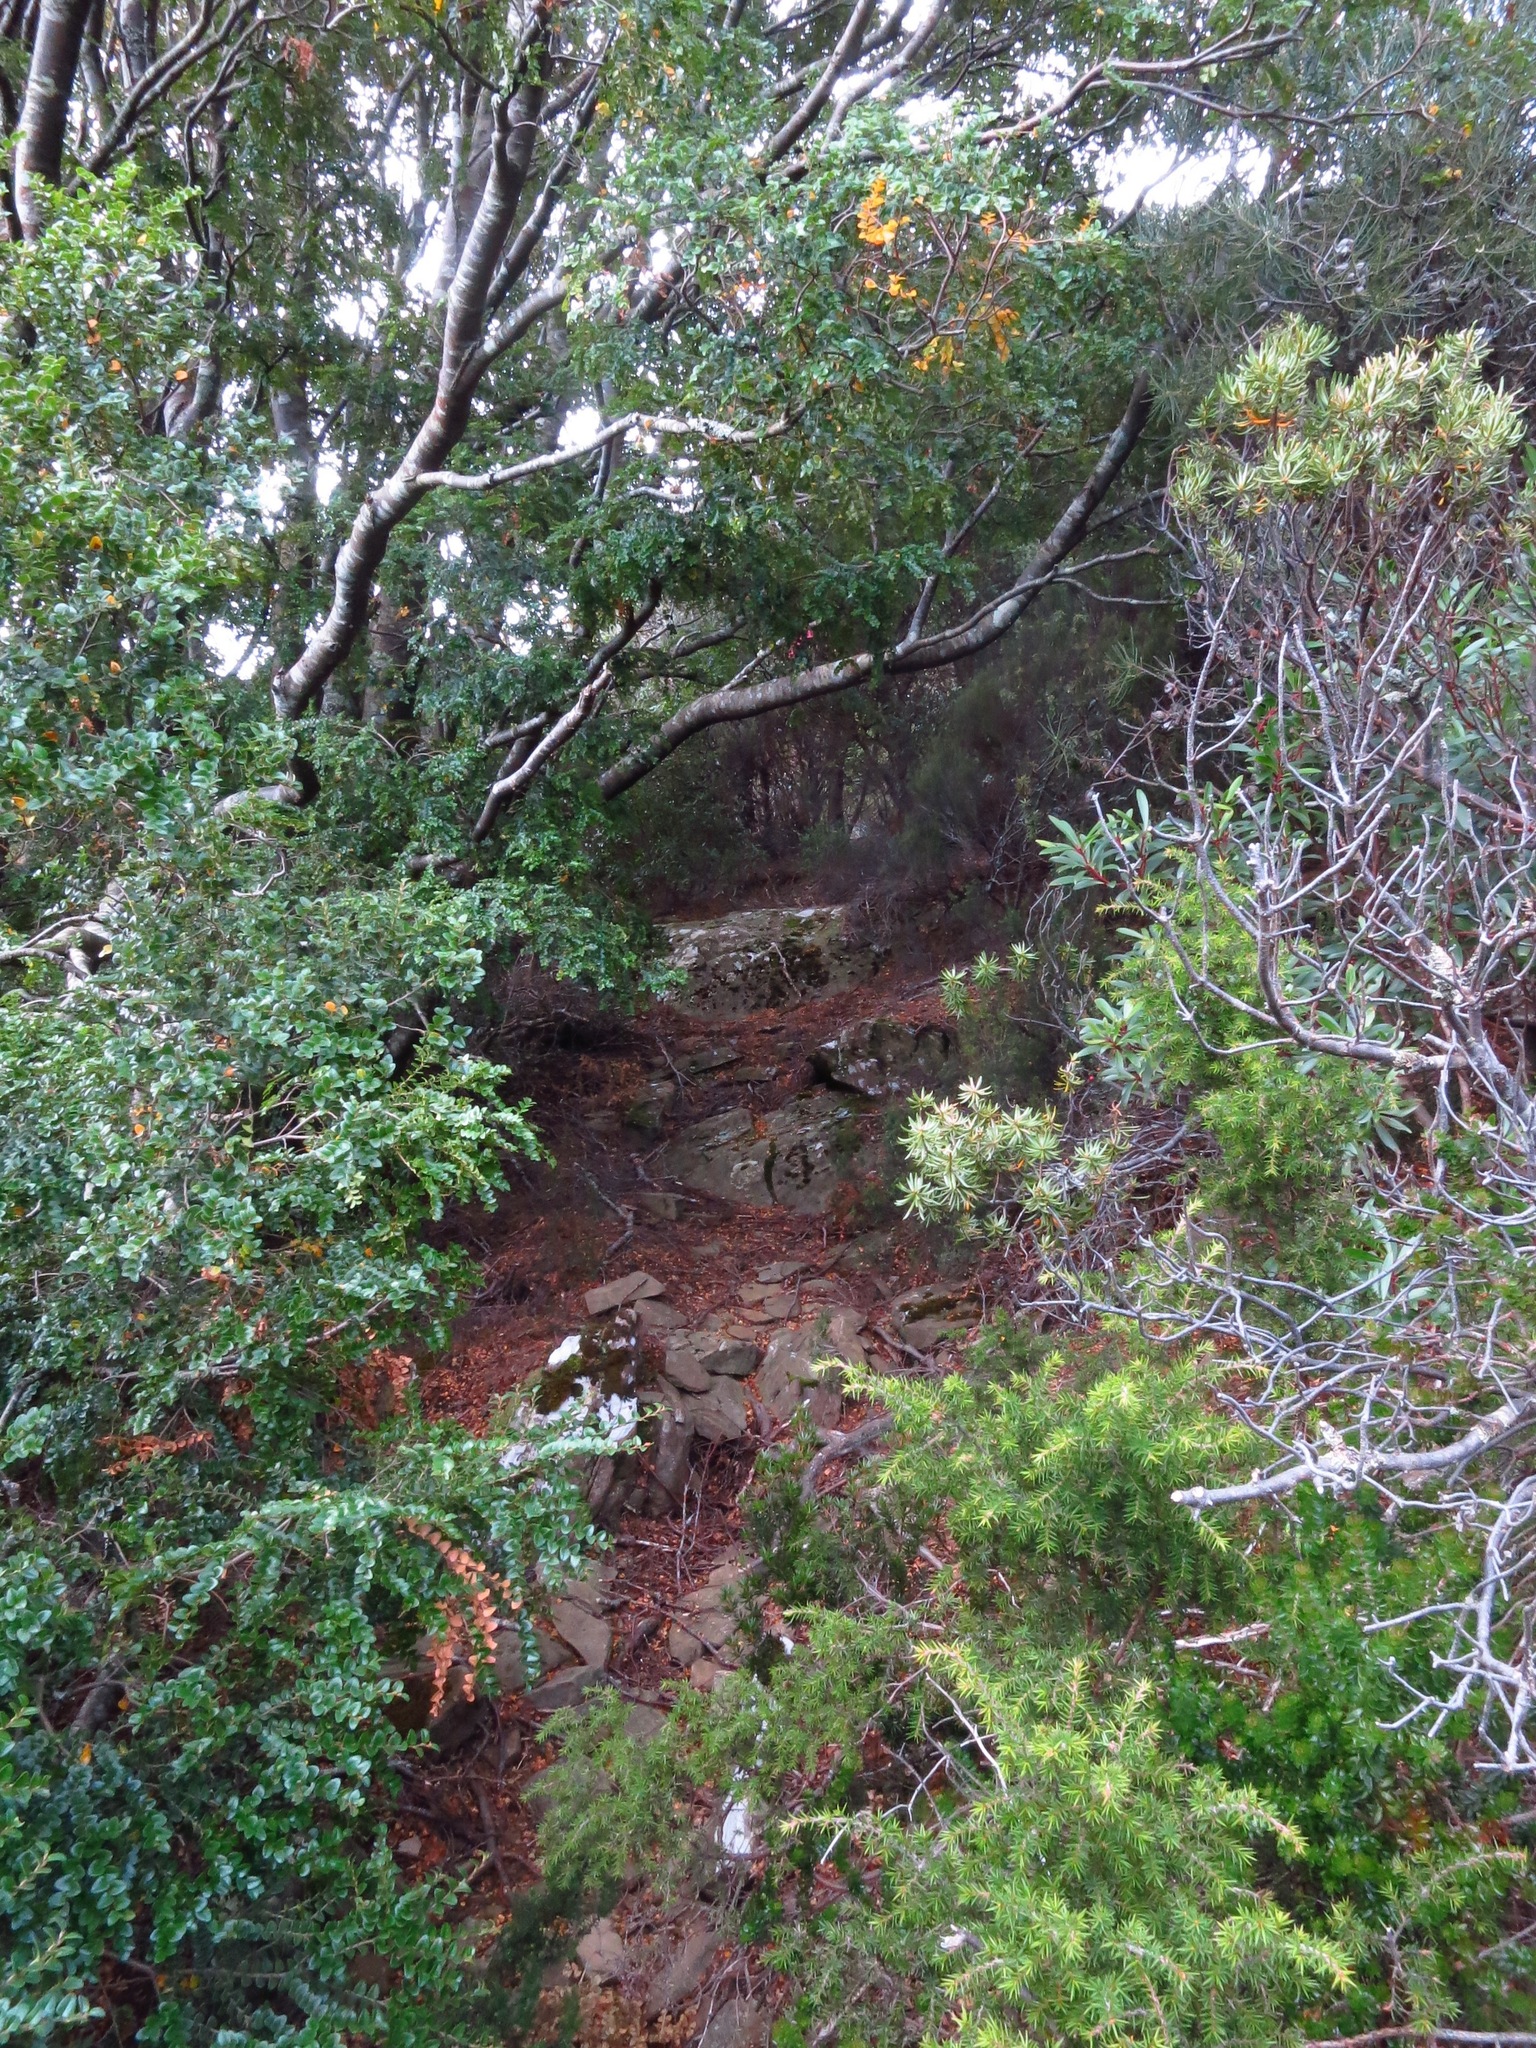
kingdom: Plantae
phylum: Tracheophyta
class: Magnoliopsida
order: Fagales
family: Nothofagaceae
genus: Nothofagus
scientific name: Nothofagus cunninghamii
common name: Myrtle beech
